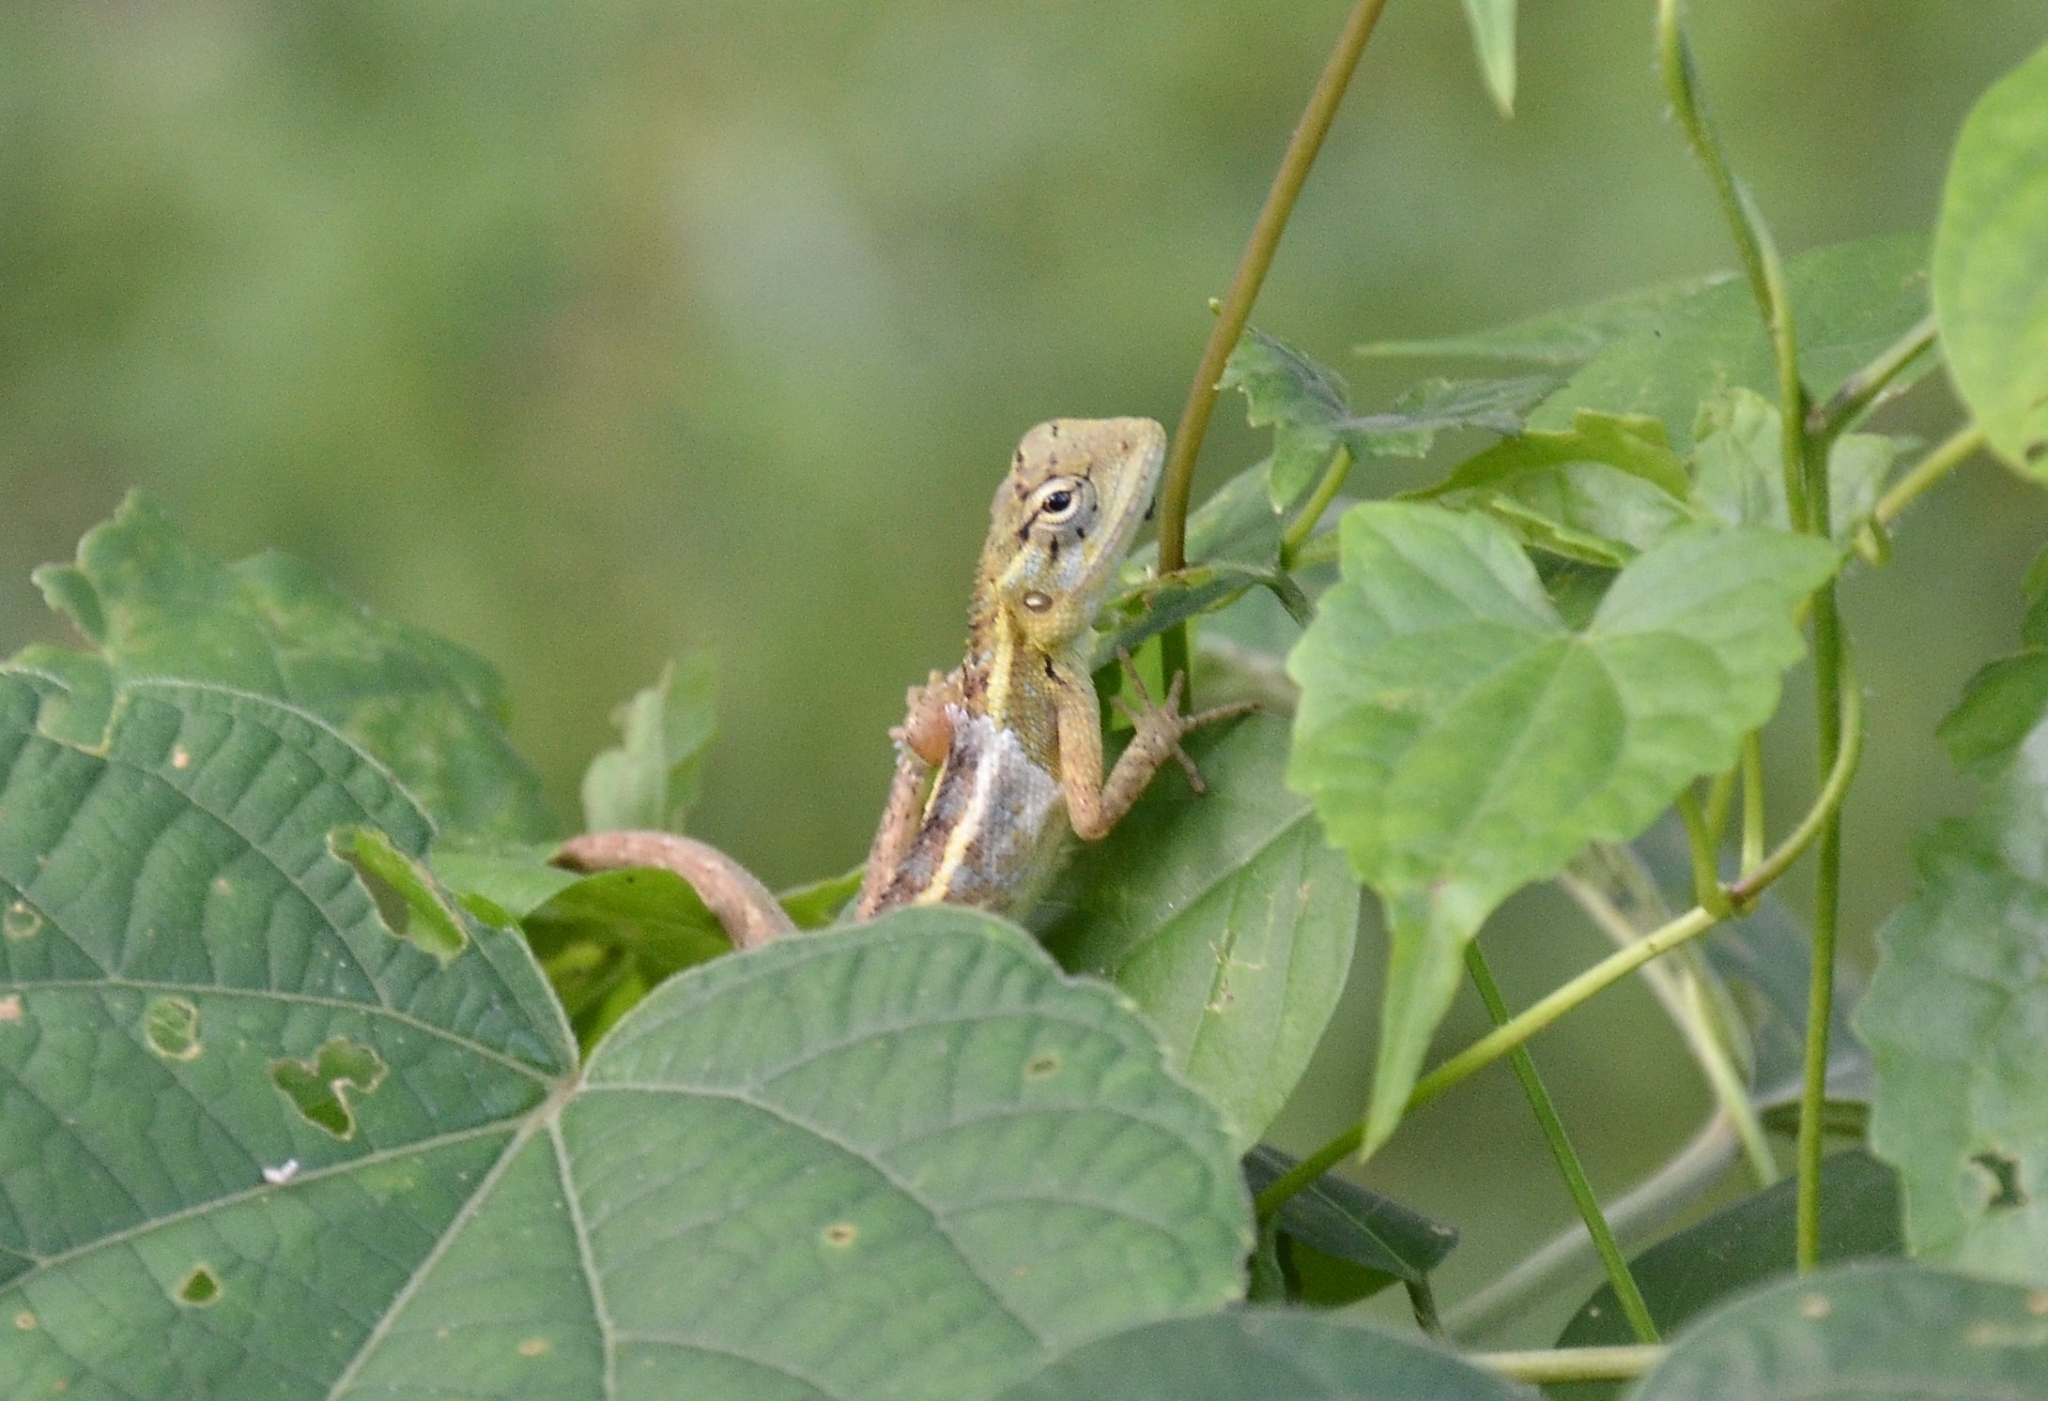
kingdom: Animalia
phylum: Chordata
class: Squamata
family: Agamidae
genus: Calotes
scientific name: Calotes versicolor
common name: Oriental garden lizard
